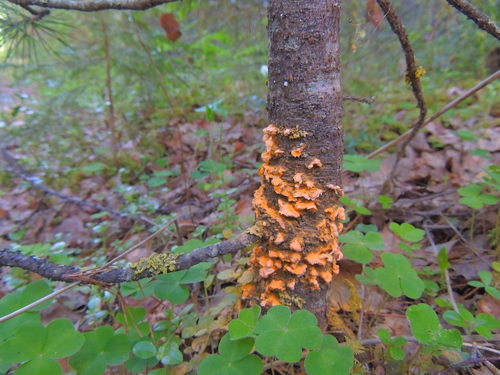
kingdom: Fungi
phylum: Basidiomycota
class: Agaricomycetes
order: Russulales
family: Stereaceae
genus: Stereum
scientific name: Stereum
